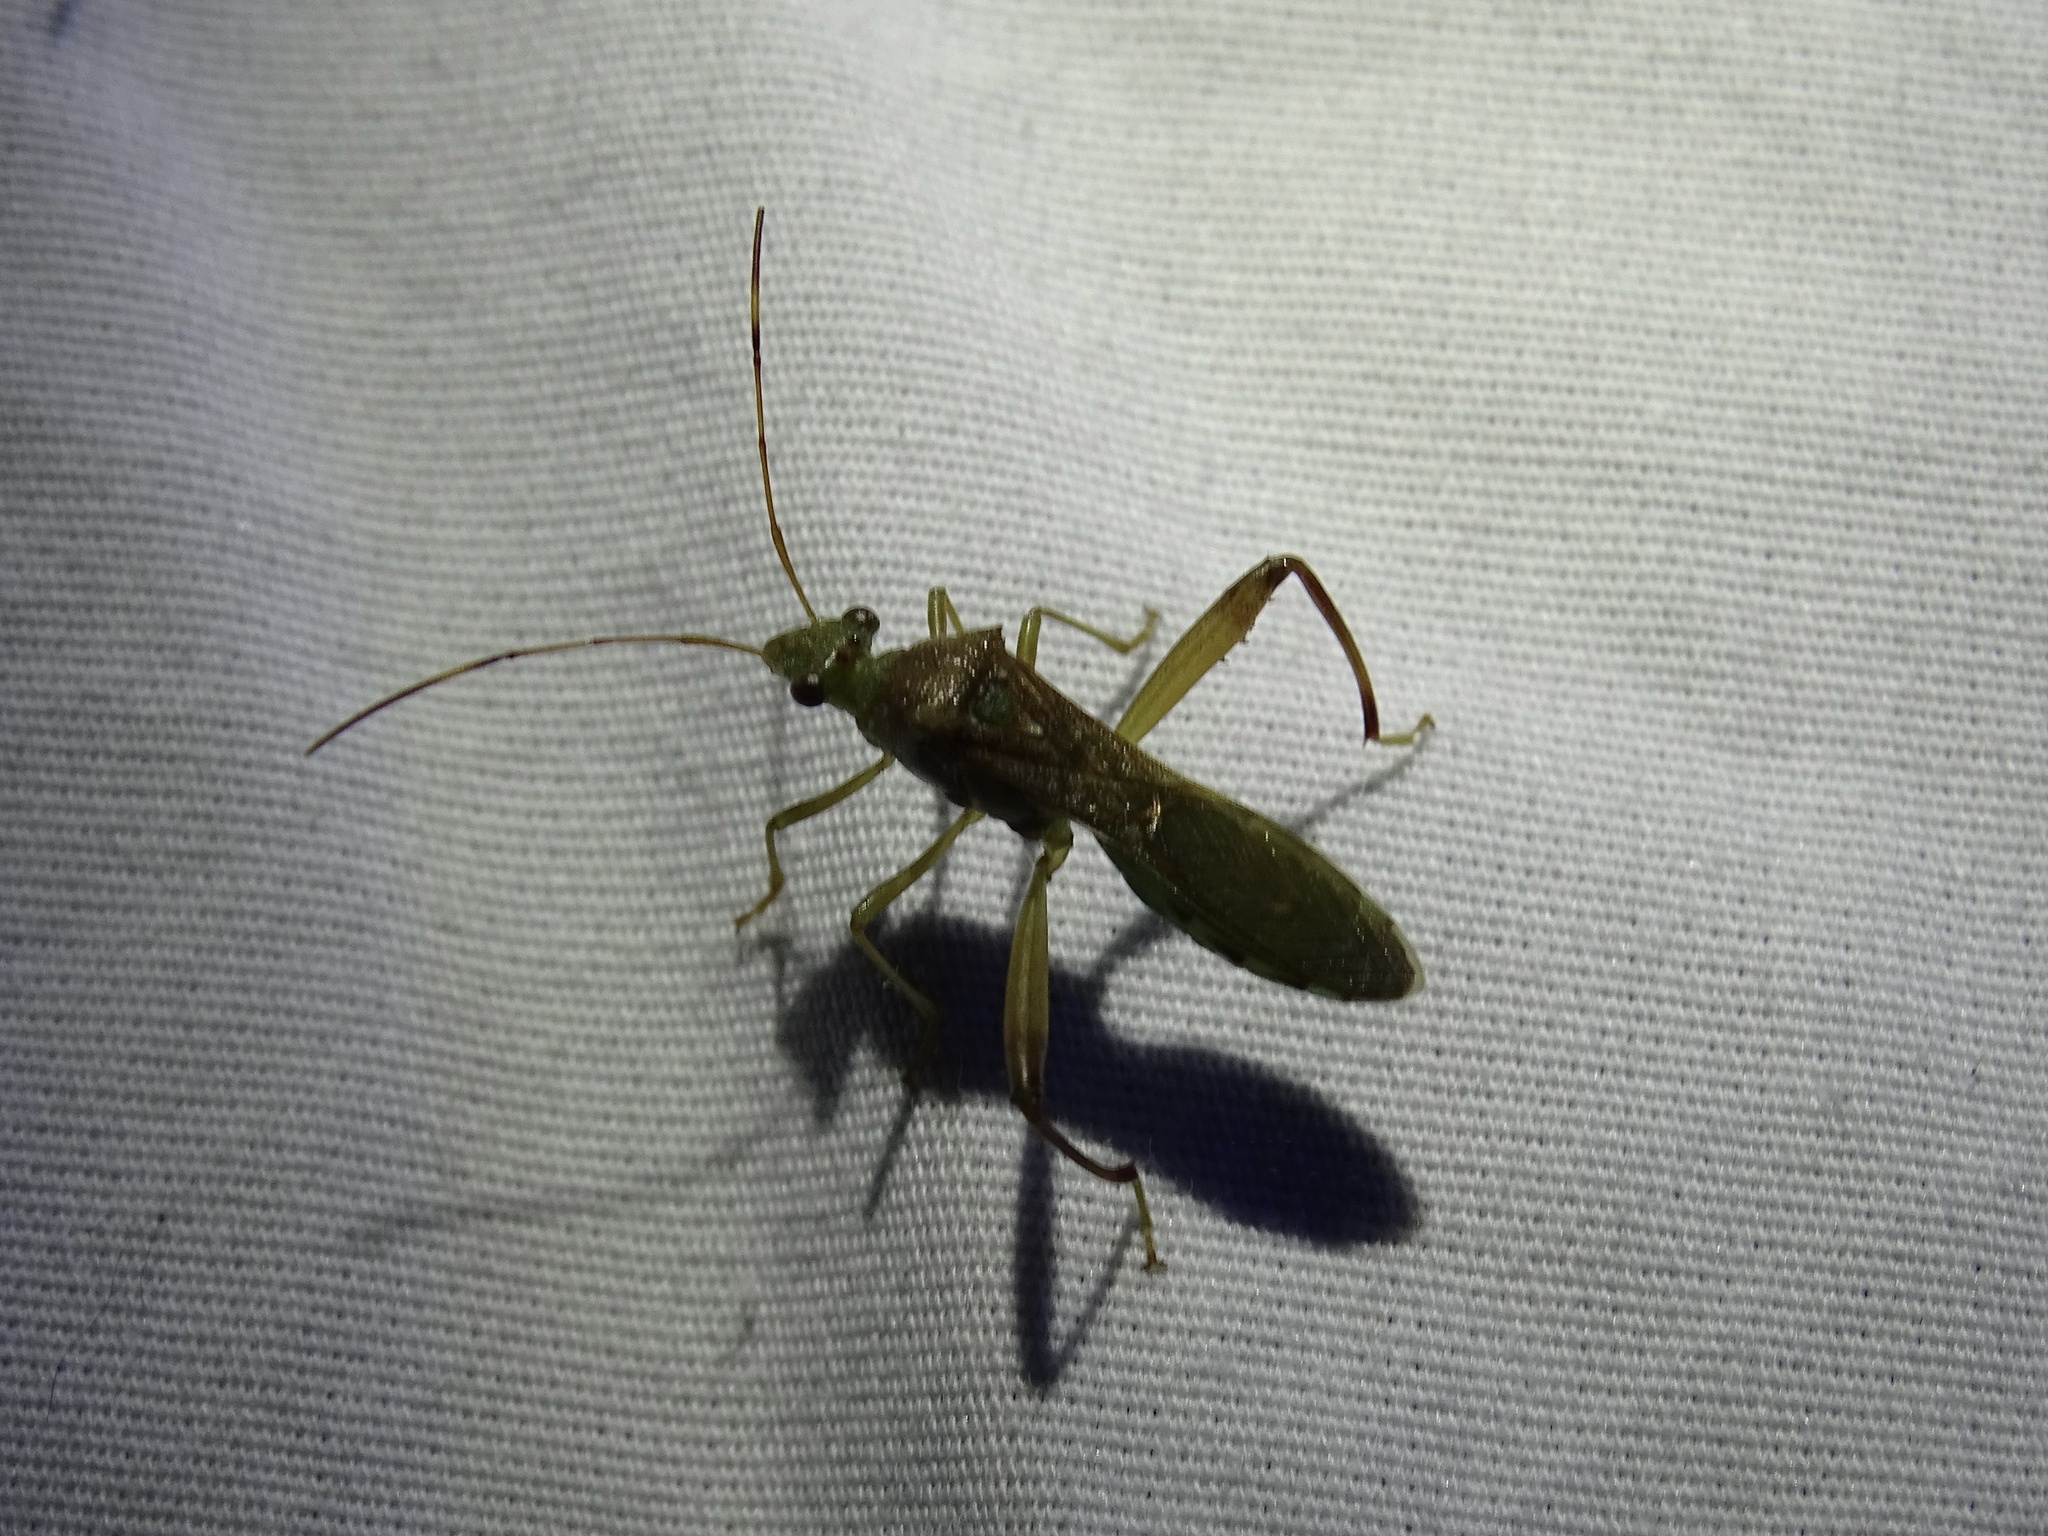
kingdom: Animalia
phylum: Arthropoda
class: Insecta
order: Hemiptera
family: Alydidae
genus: Hyalymenus
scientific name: Hyalymenus tarsatus
